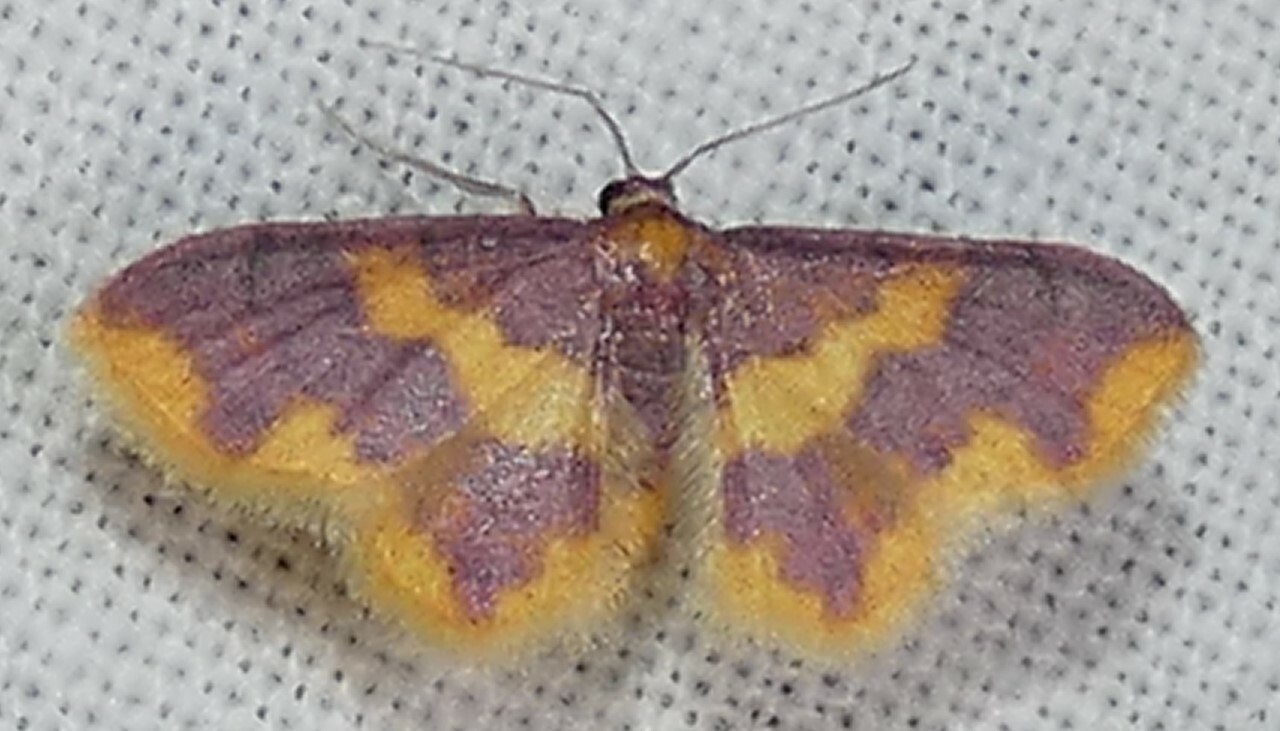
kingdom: Animalia
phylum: Arthropoda
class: Insecta
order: Lepidoptera
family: Geometridae
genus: Lophosis
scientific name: Lophosis labeculata
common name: Stained lophosis moth
